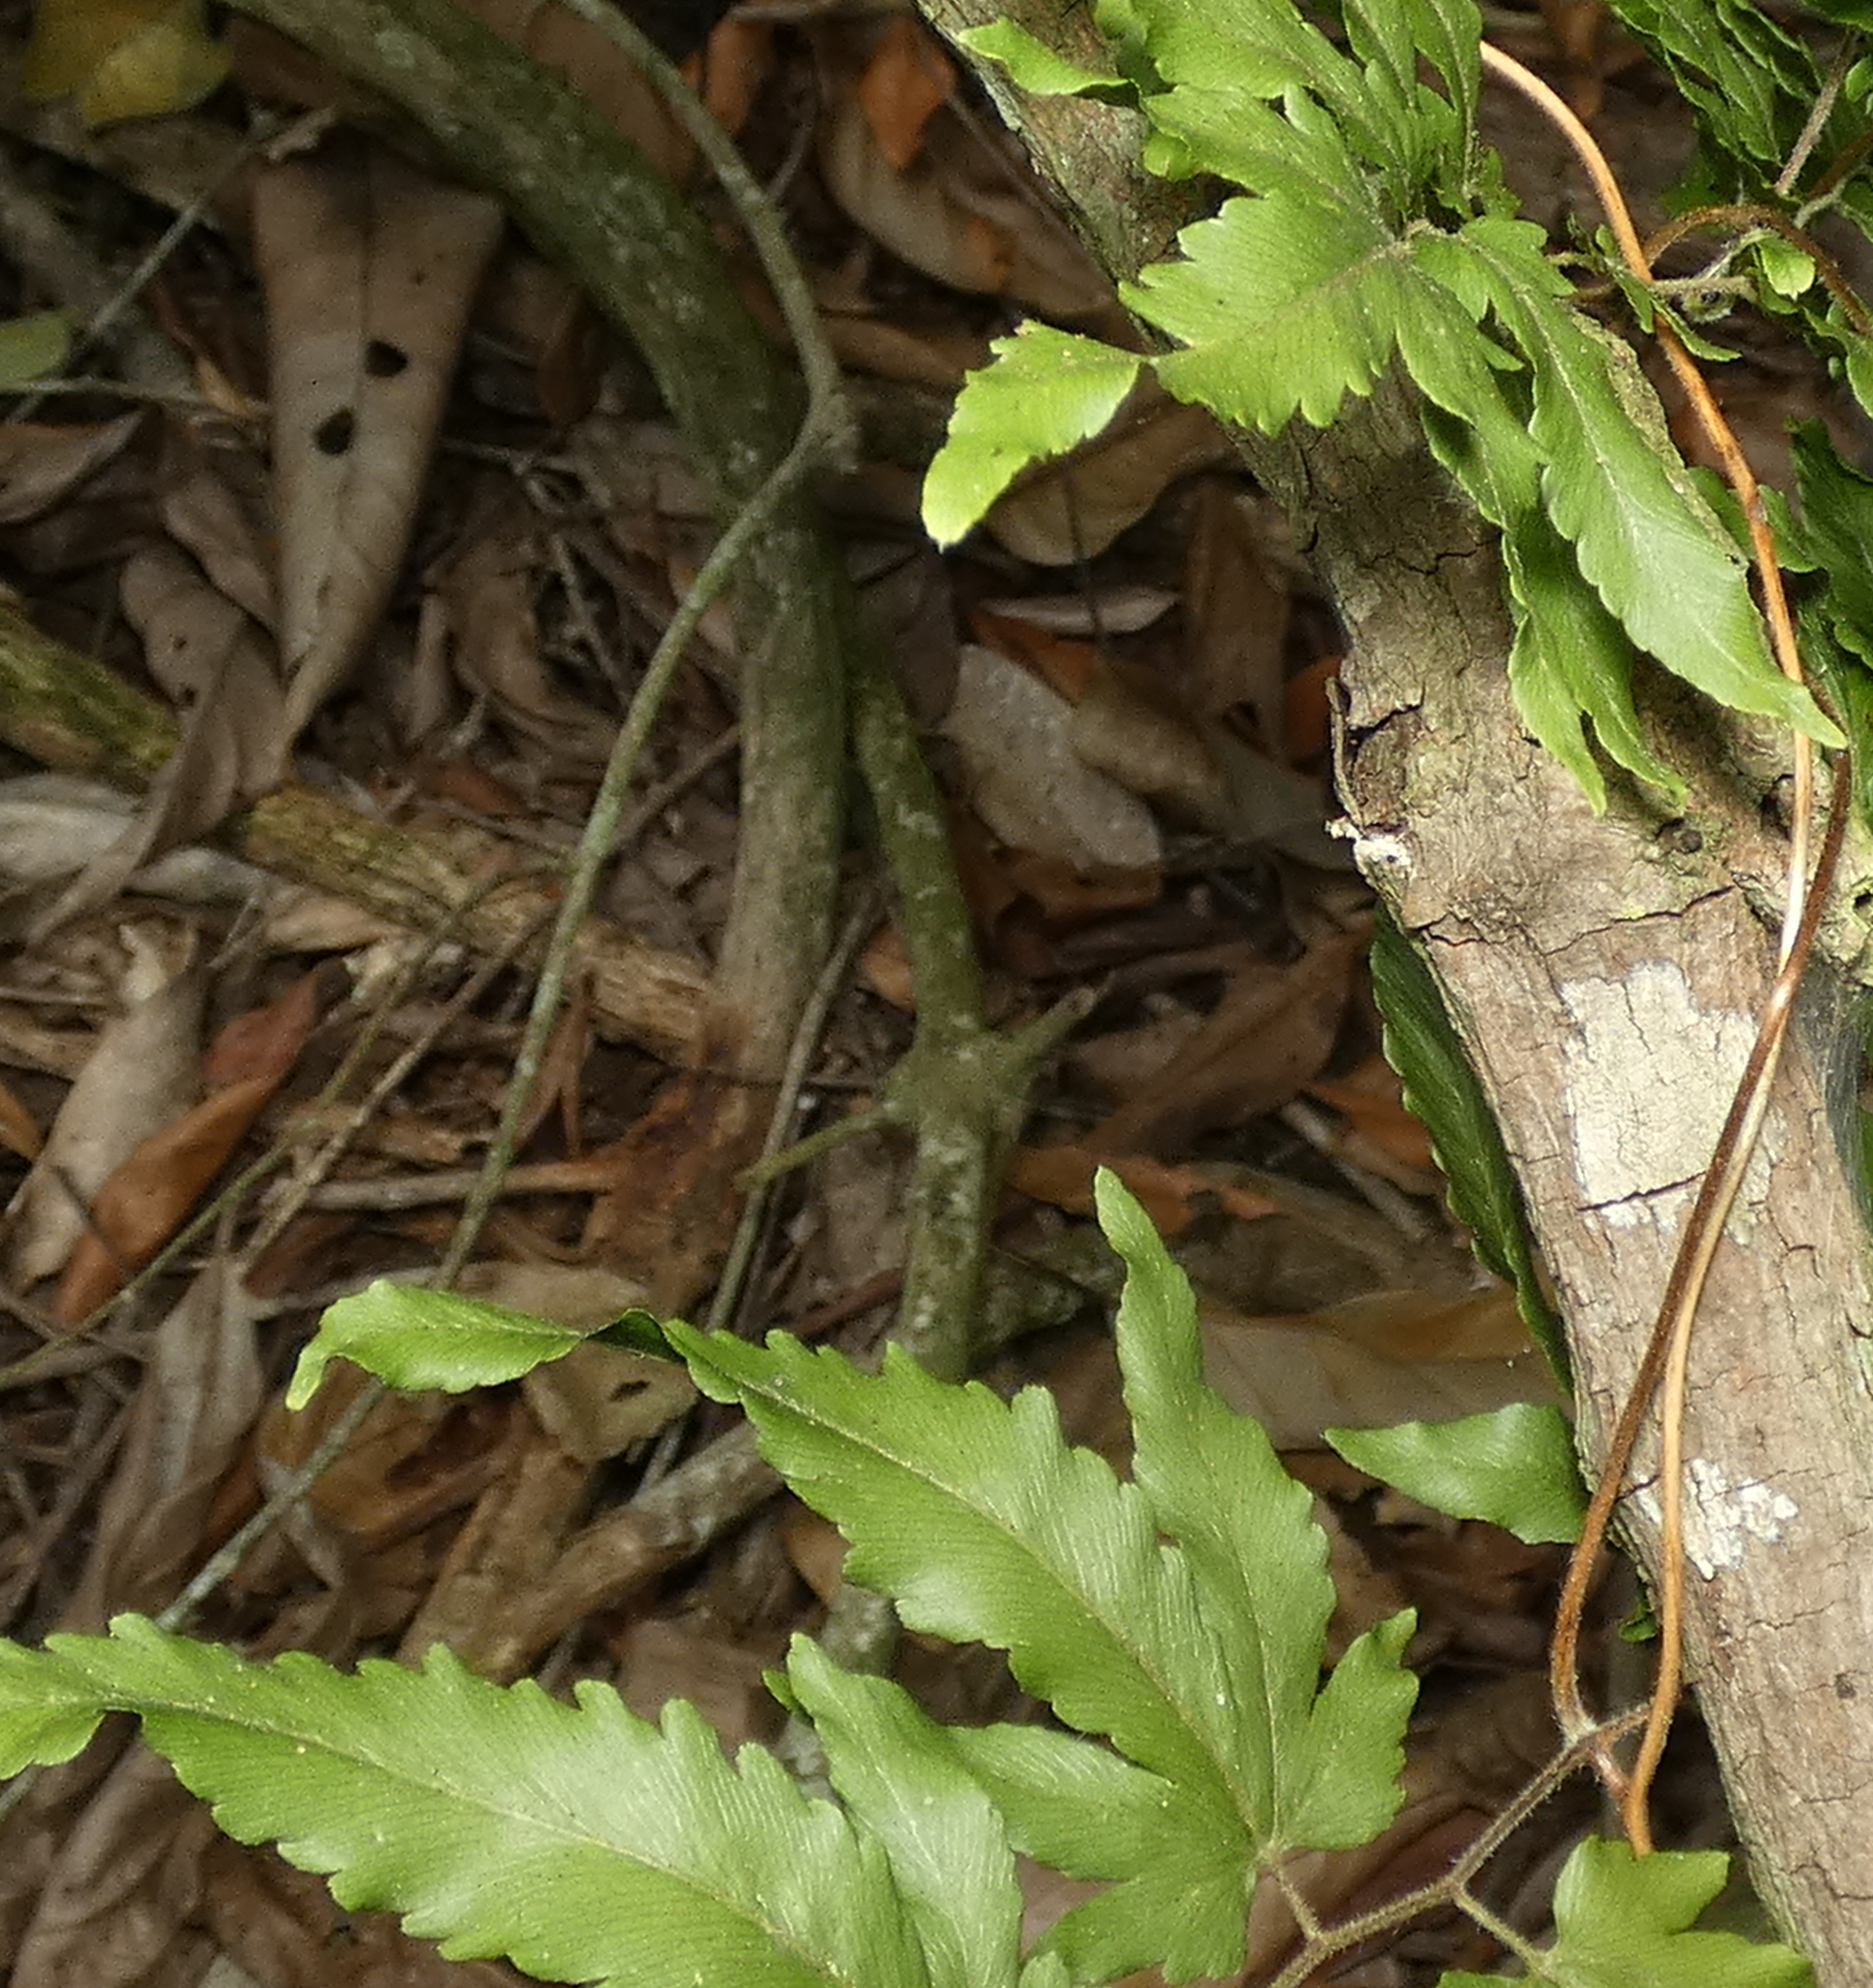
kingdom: Plantae
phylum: Tracheophyta
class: Polypodiopsida
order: Schizaeales
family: Lygodiaceae
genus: Lygodium
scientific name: Lygodium venustum
